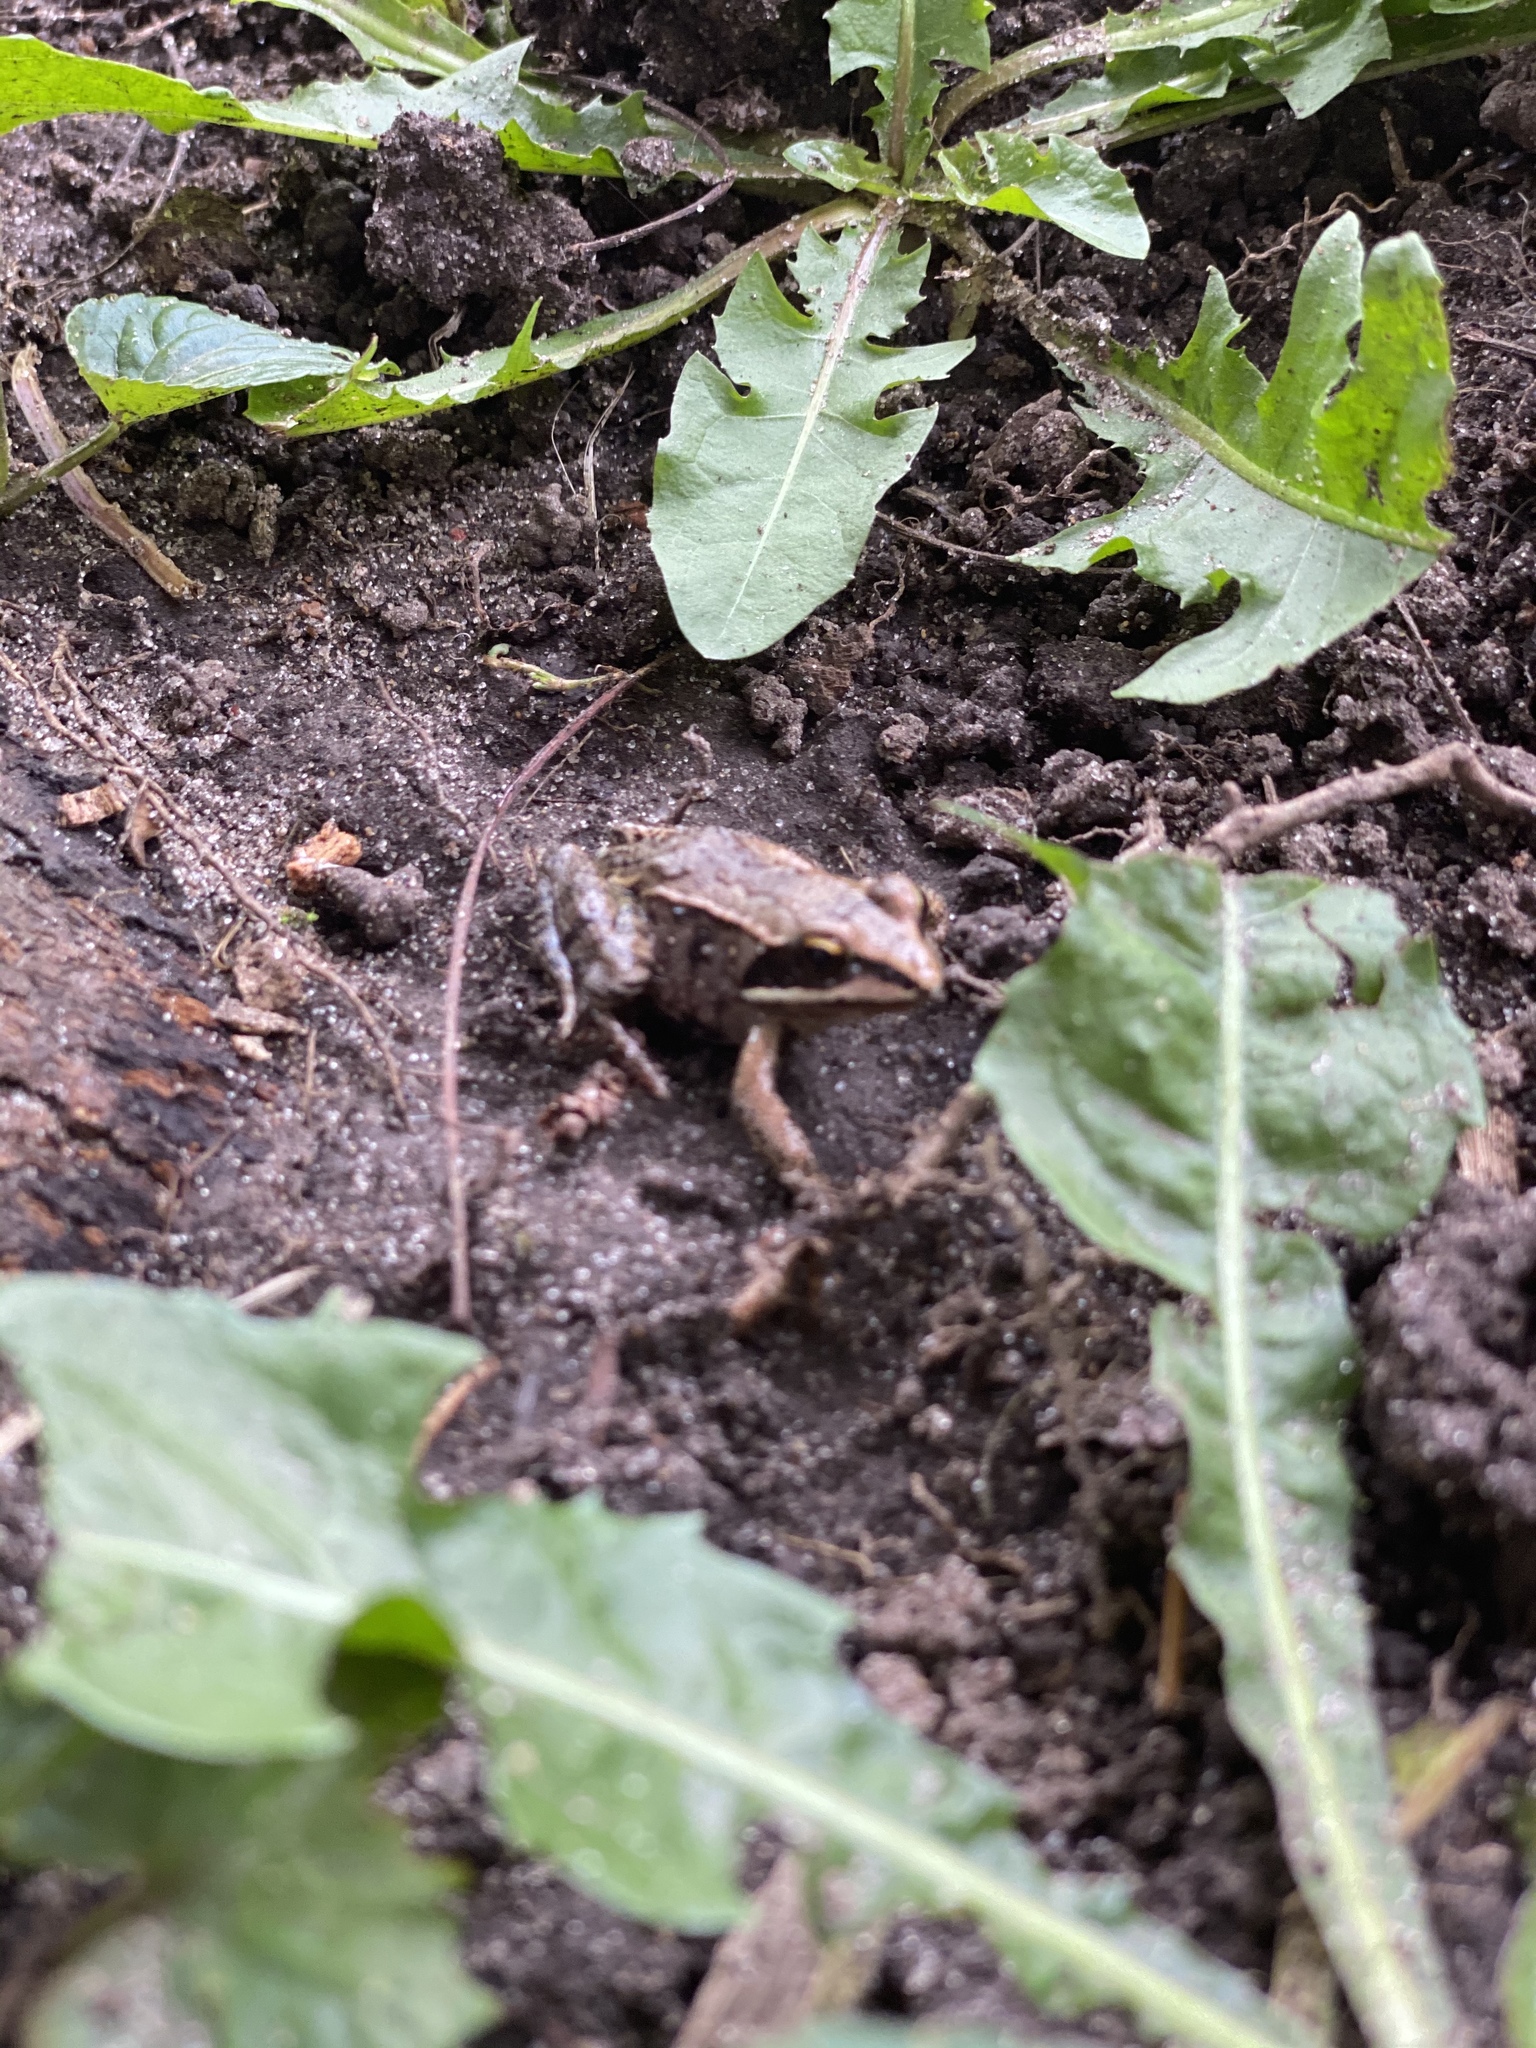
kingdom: Animalia
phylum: Chordata
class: Amphibia
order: Anura
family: Ranidae
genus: Lithobates
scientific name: Lithobates sylvaticus
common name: Wood frog
